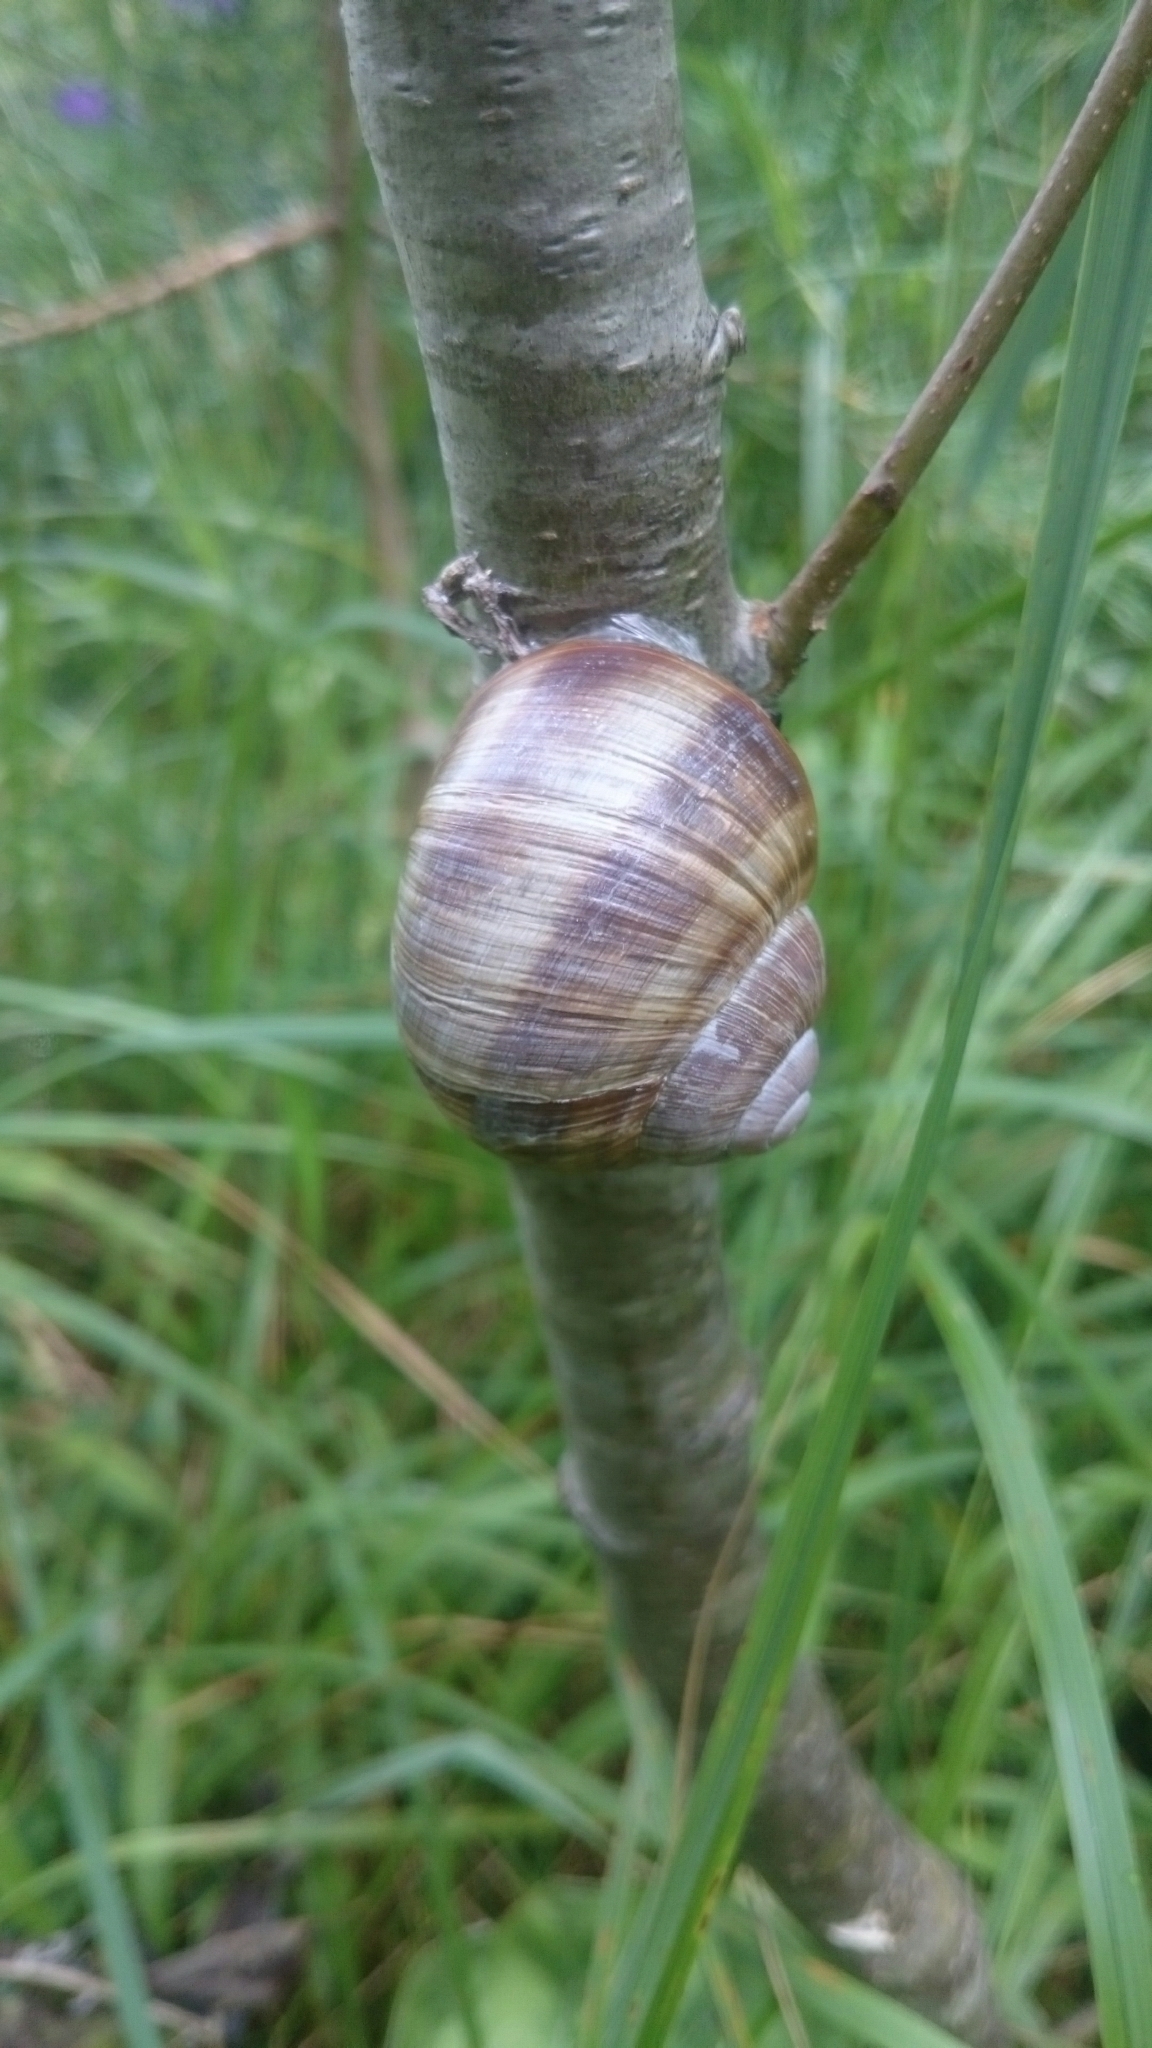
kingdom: Animalia
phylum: Mollusca
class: Gastropoda
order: Stylommatophora
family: Helicidae
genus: Helix
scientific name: Helix pomatia
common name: Roman snail
